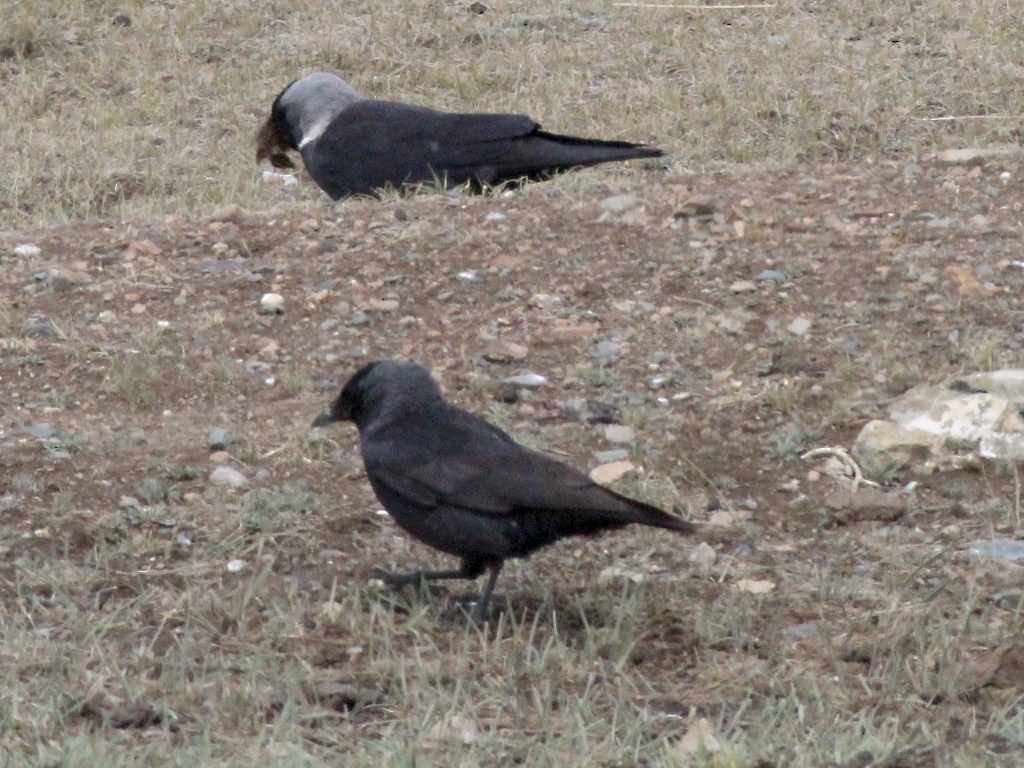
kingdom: Animalia
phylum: Chordata
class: Aves
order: Passeriformes
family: Corvidae
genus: Coloeus
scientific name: Coloeus dauuricus
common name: Daurian jackdaw
